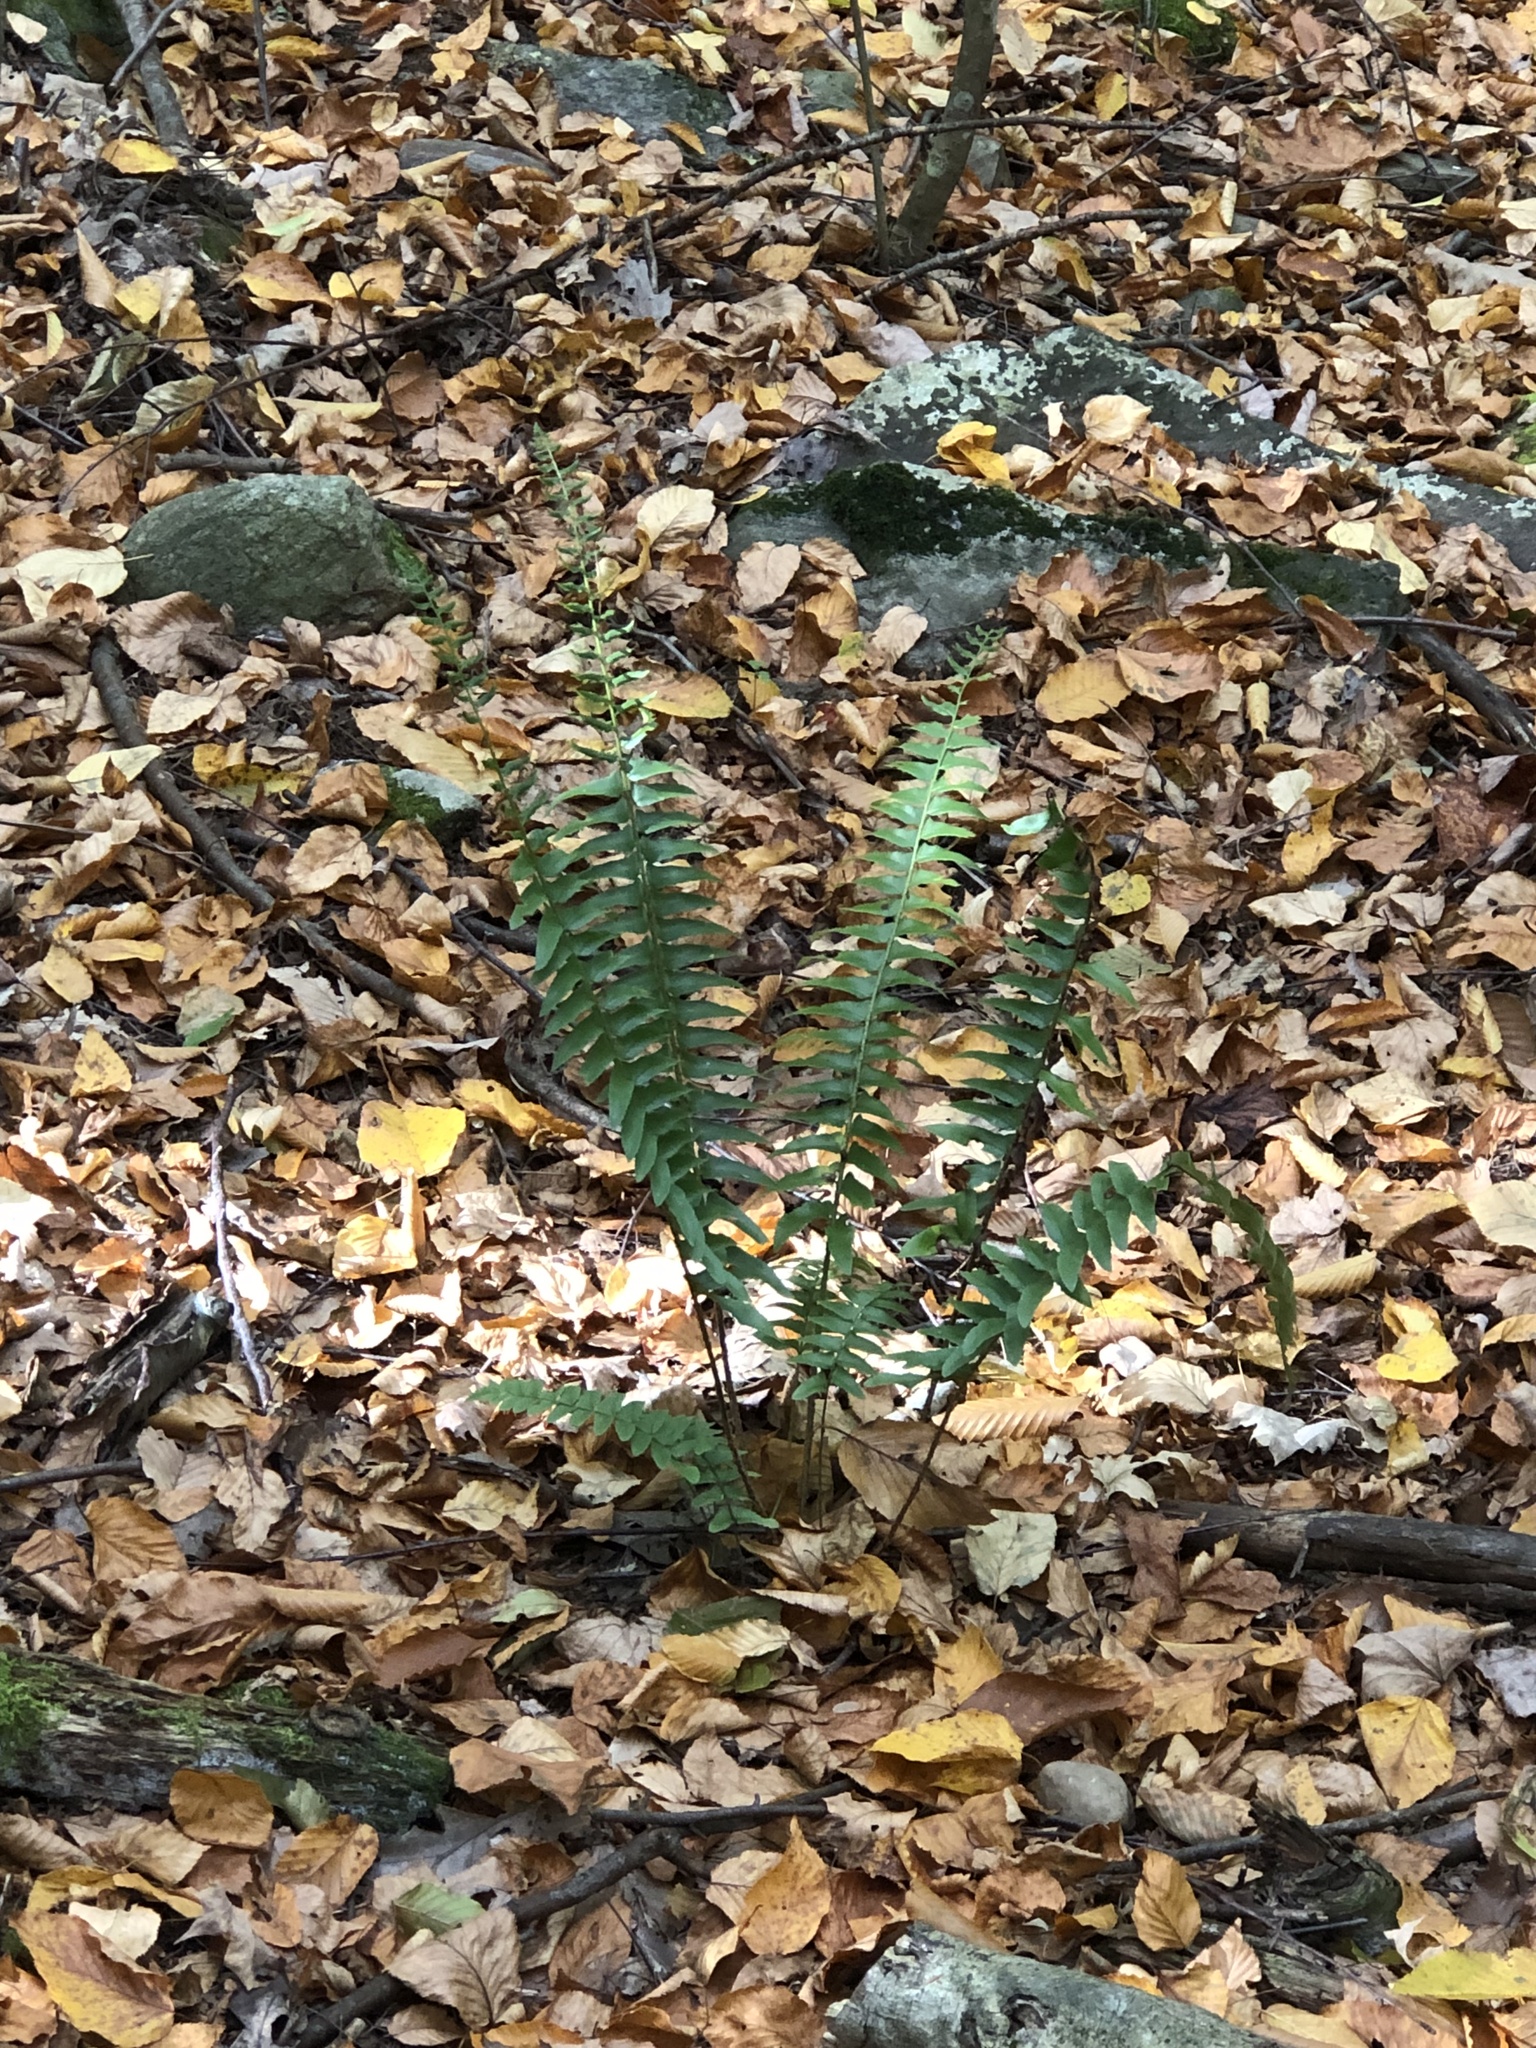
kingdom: Plantae
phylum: Tracheophyta
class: Polypodiopsida
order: Polypodiales
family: Dryopteridaceae
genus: Polystichum
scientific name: Polystichum acrostichoides
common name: Christmas fern
